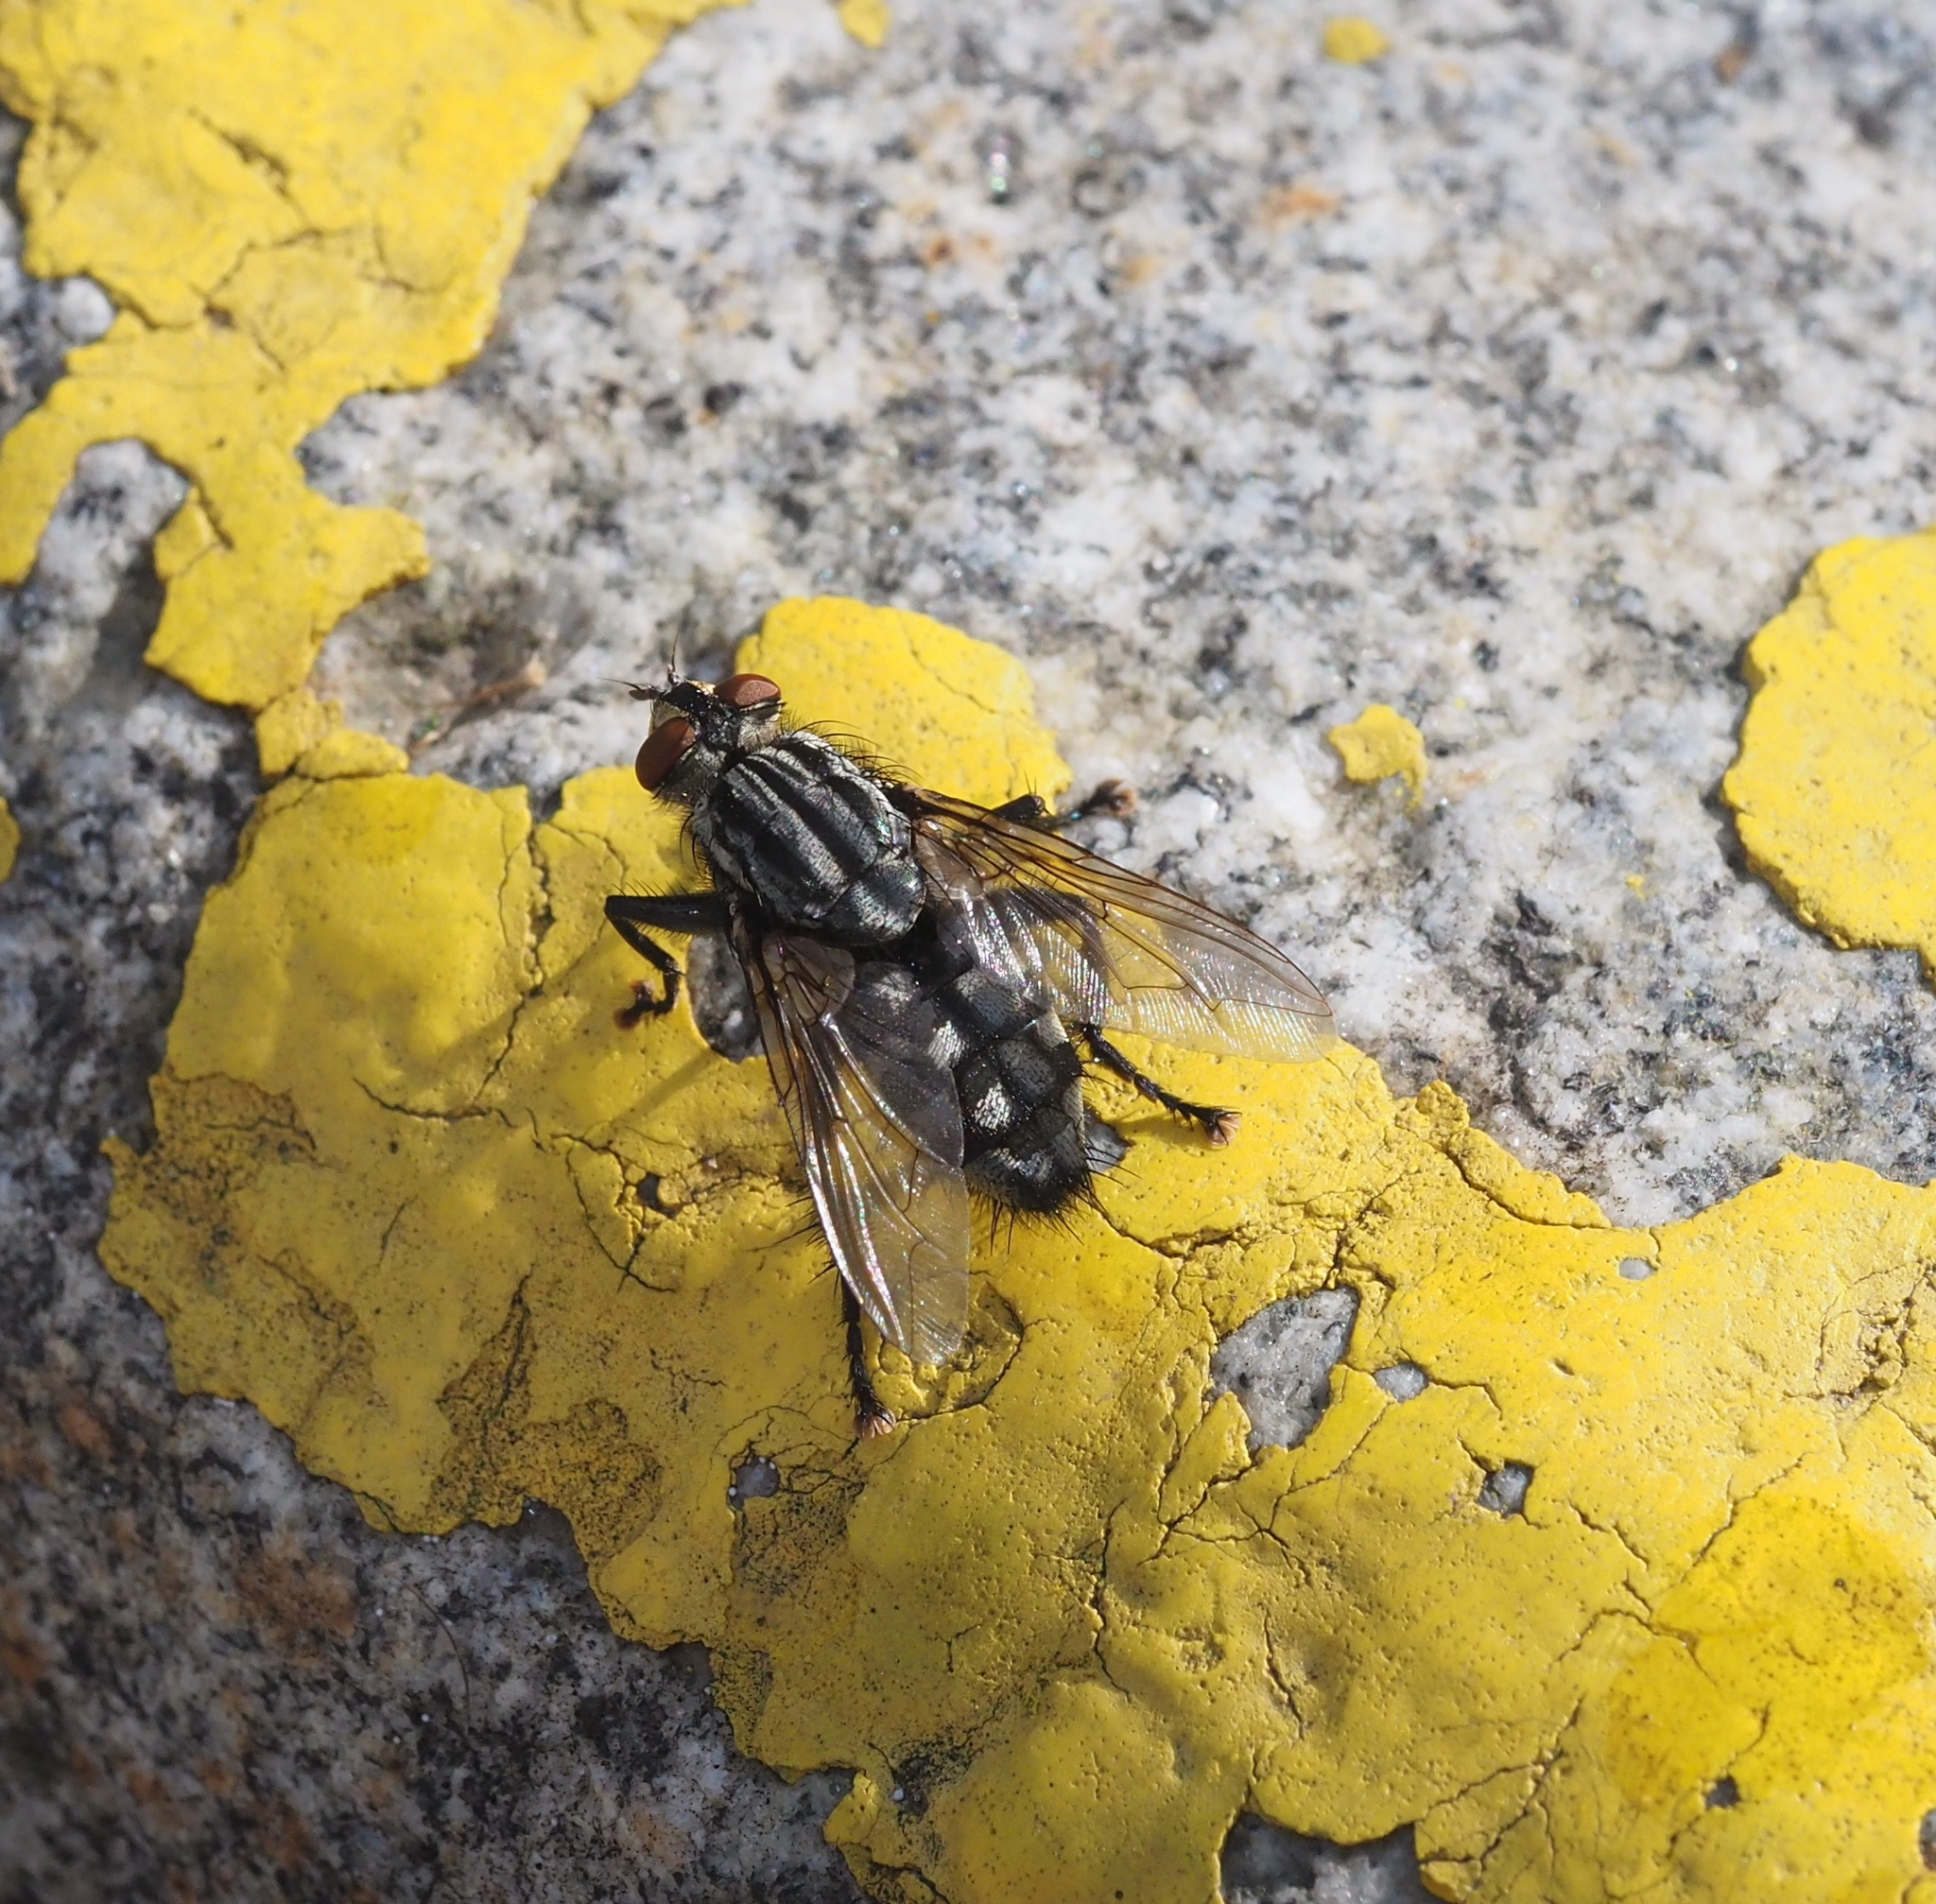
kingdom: Animalia
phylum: Arthropoda
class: Insecta
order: Diptera
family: Sarcophagidae
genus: Sarcophaga
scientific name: Sarcophaga variegata
